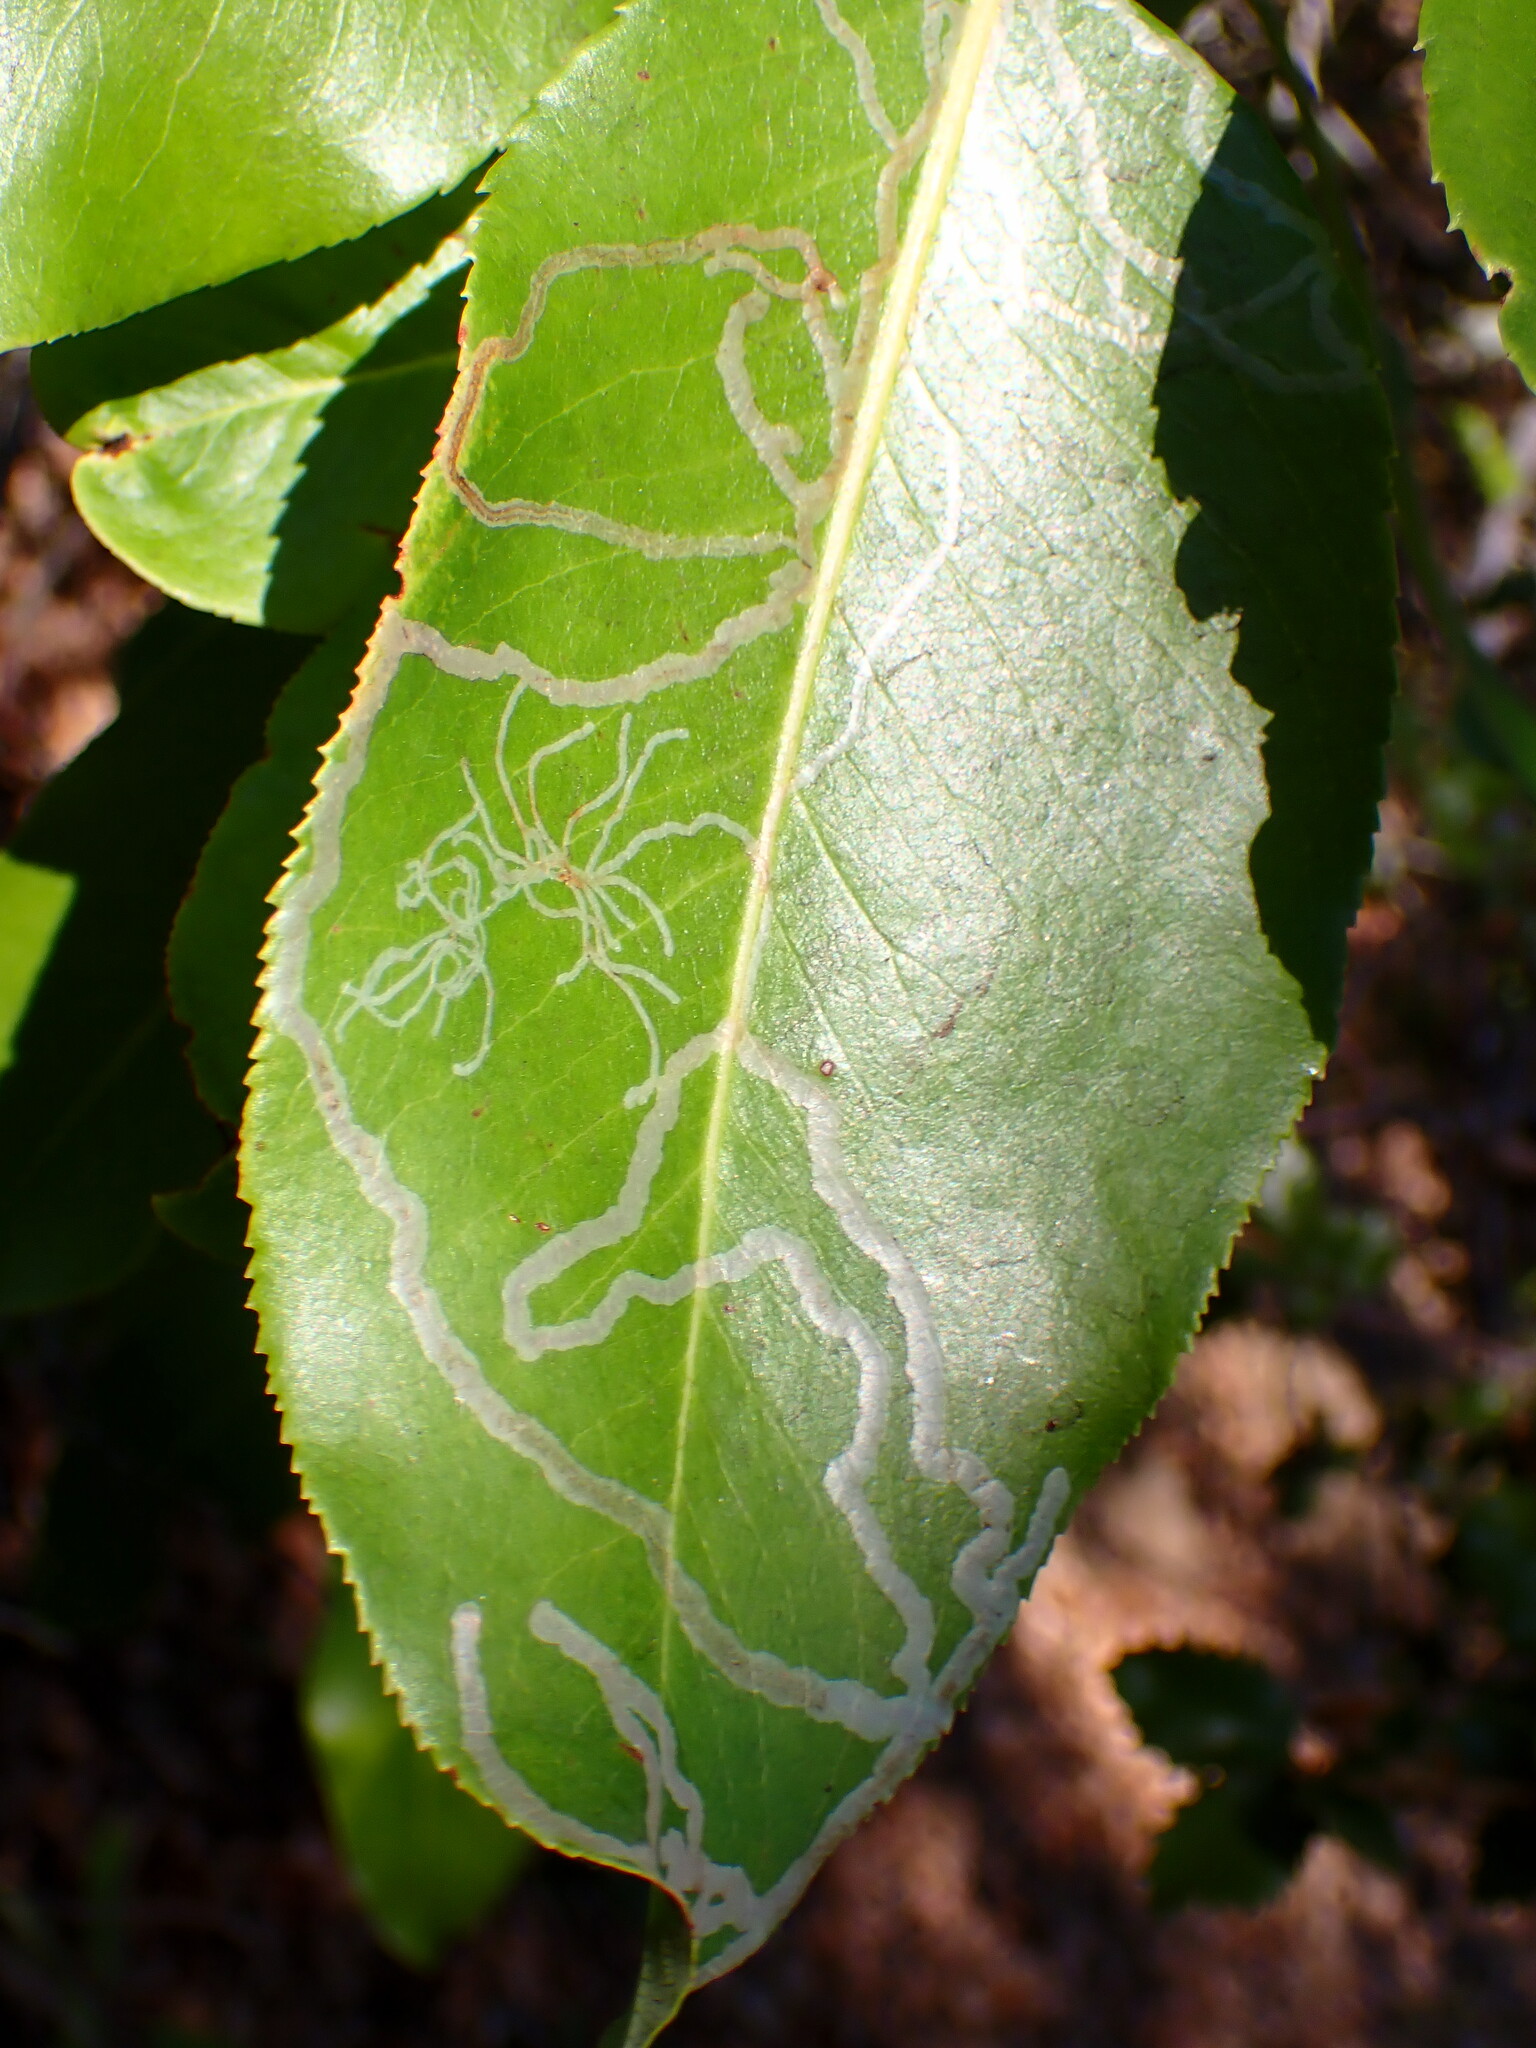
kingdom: Animalia
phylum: Arthropoda
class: Insecta
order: Lepidoptera
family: Gracillariidae
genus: Marmara
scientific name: Marmara arbutiella
